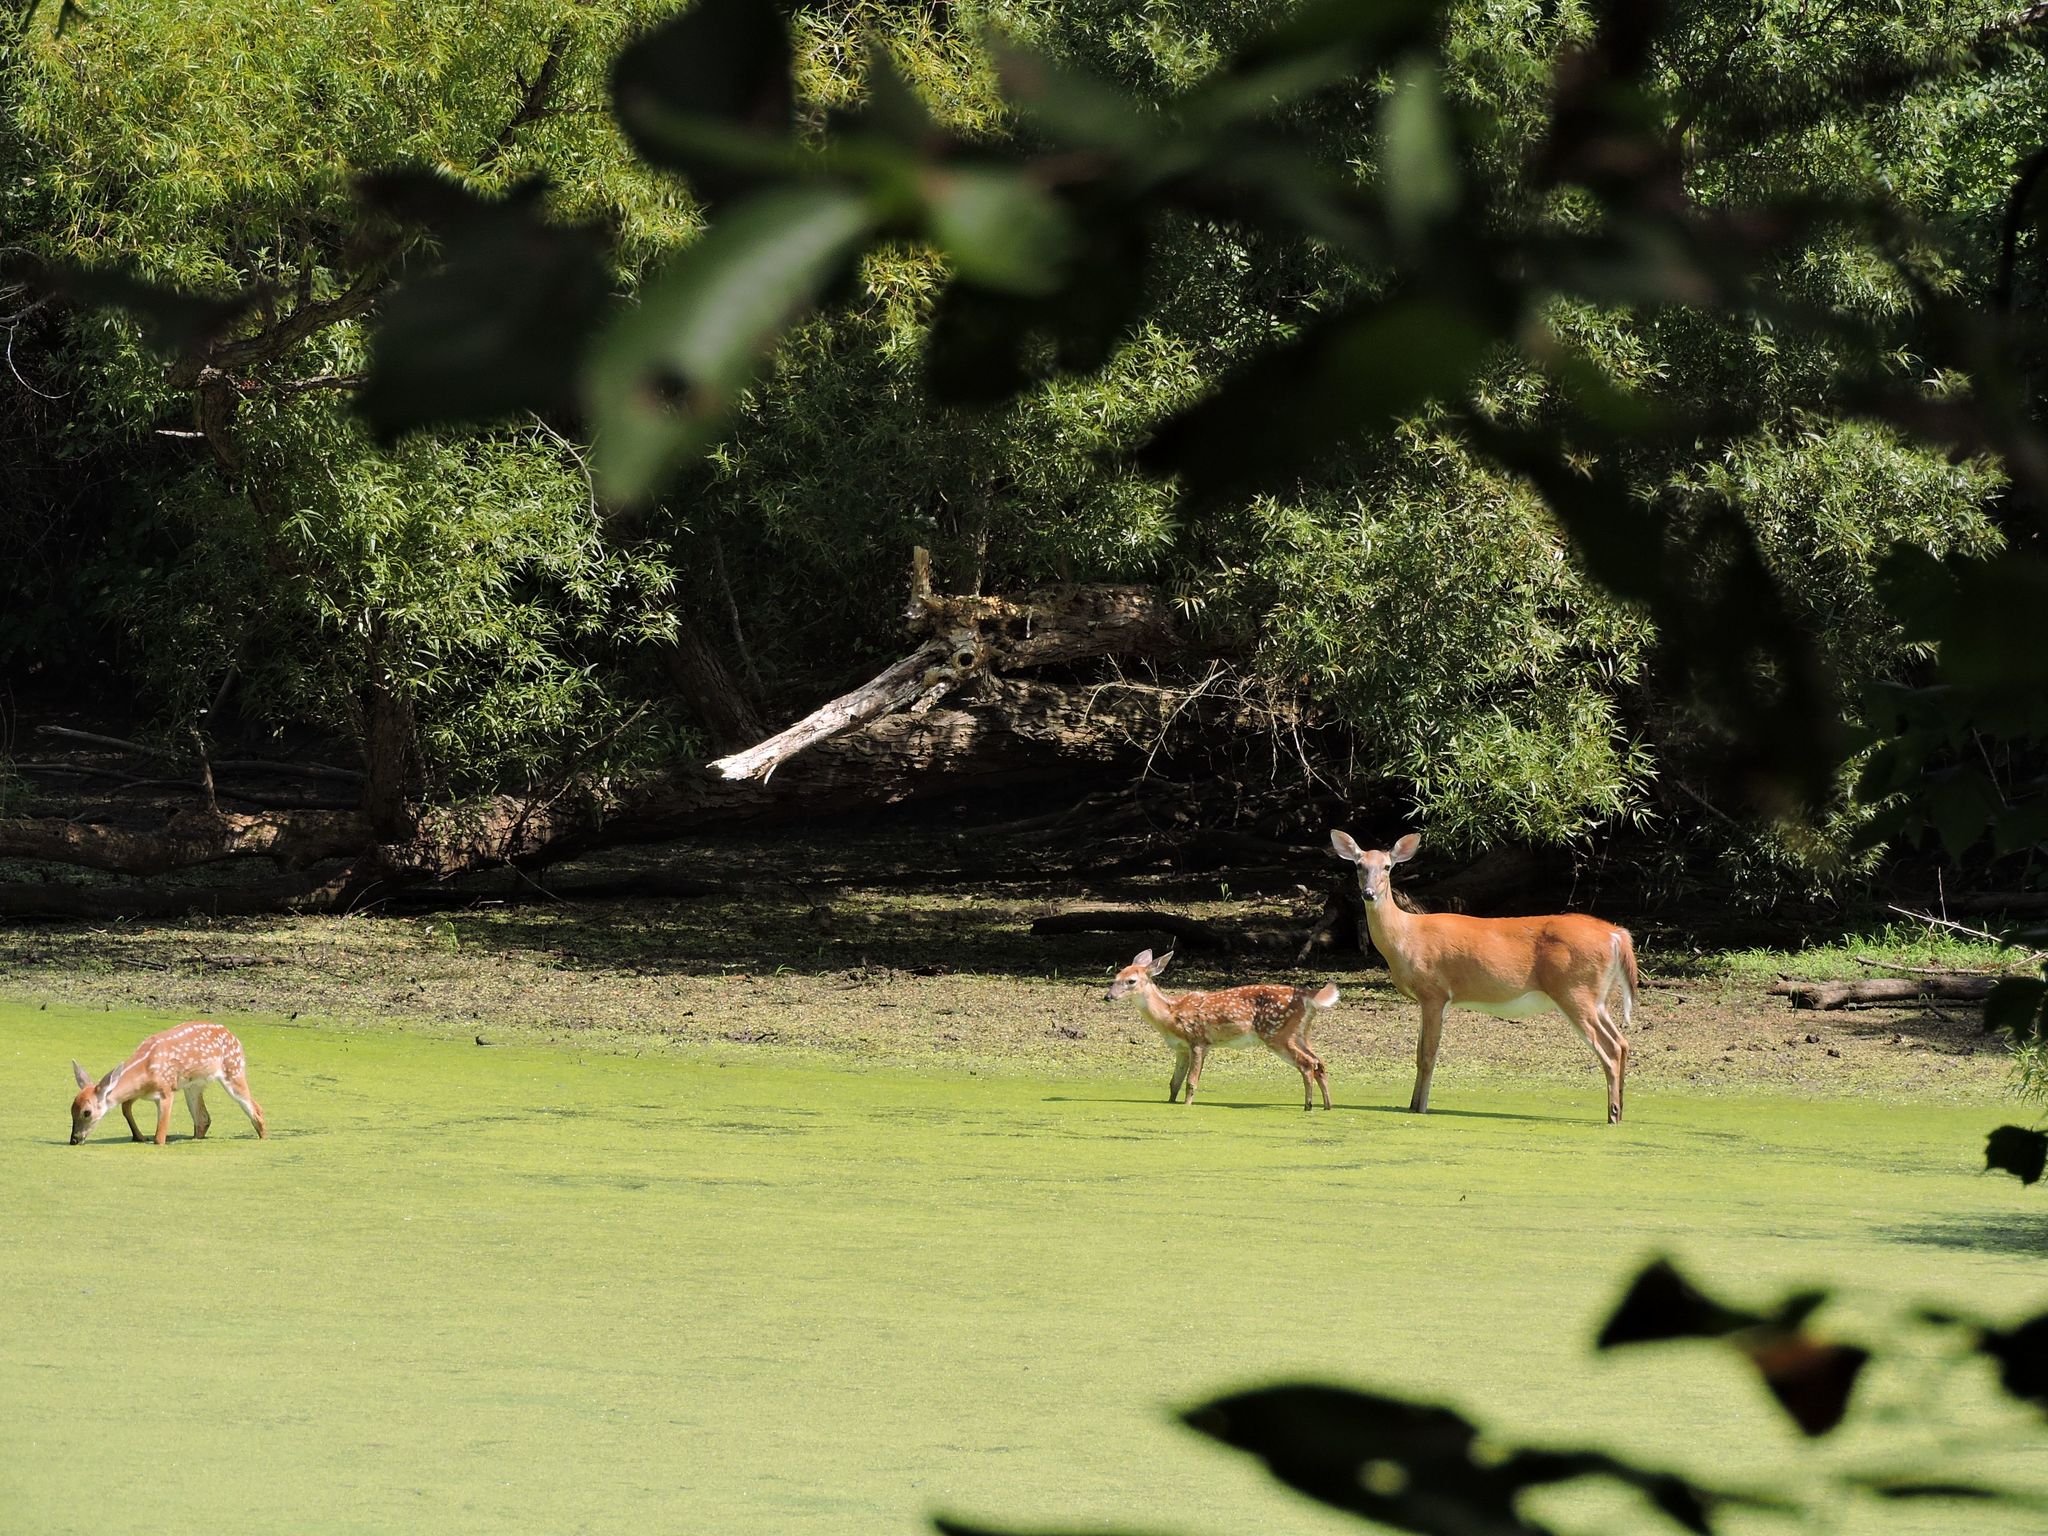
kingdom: Animalia
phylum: Chordata
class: Mammalia
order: Artiodactyla
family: Cervidae
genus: Odocoileus
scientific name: Odocoileus virginianus
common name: White-tailed deer
